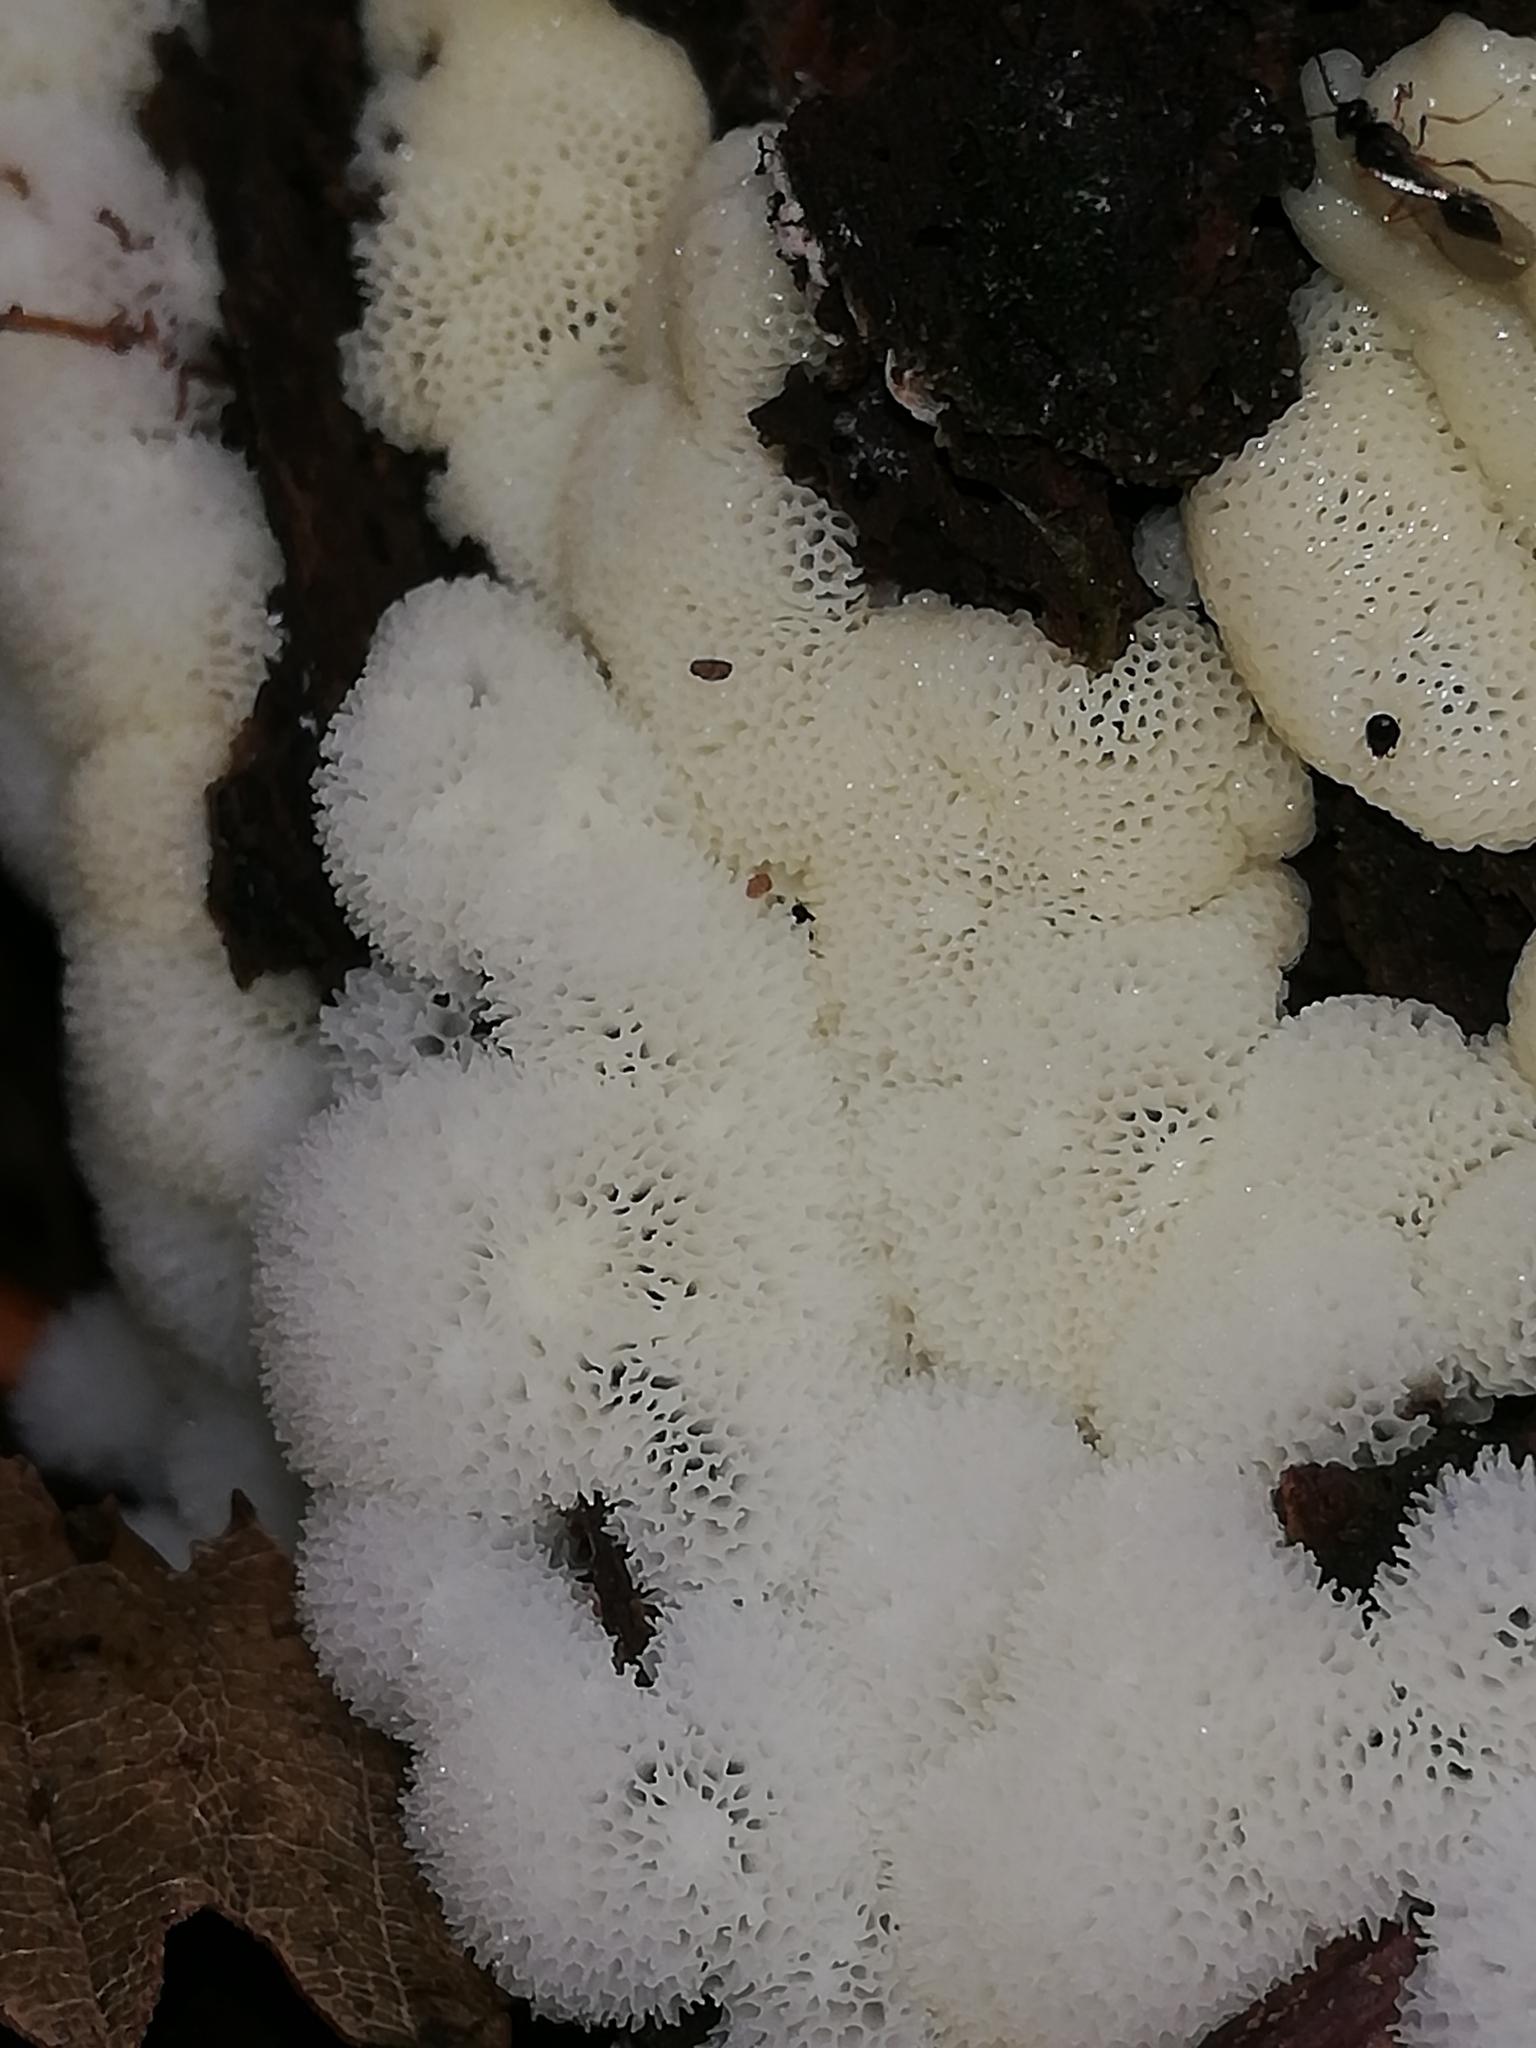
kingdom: Protozoa
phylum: Mycetozoa
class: Protosteliomycetes
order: Ceratiomyxales
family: Ceratiomyxaceae
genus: Ceratiomyxa
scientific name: Ceratiomyxa fruticulosa
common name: Honeycomb coral slime mold
